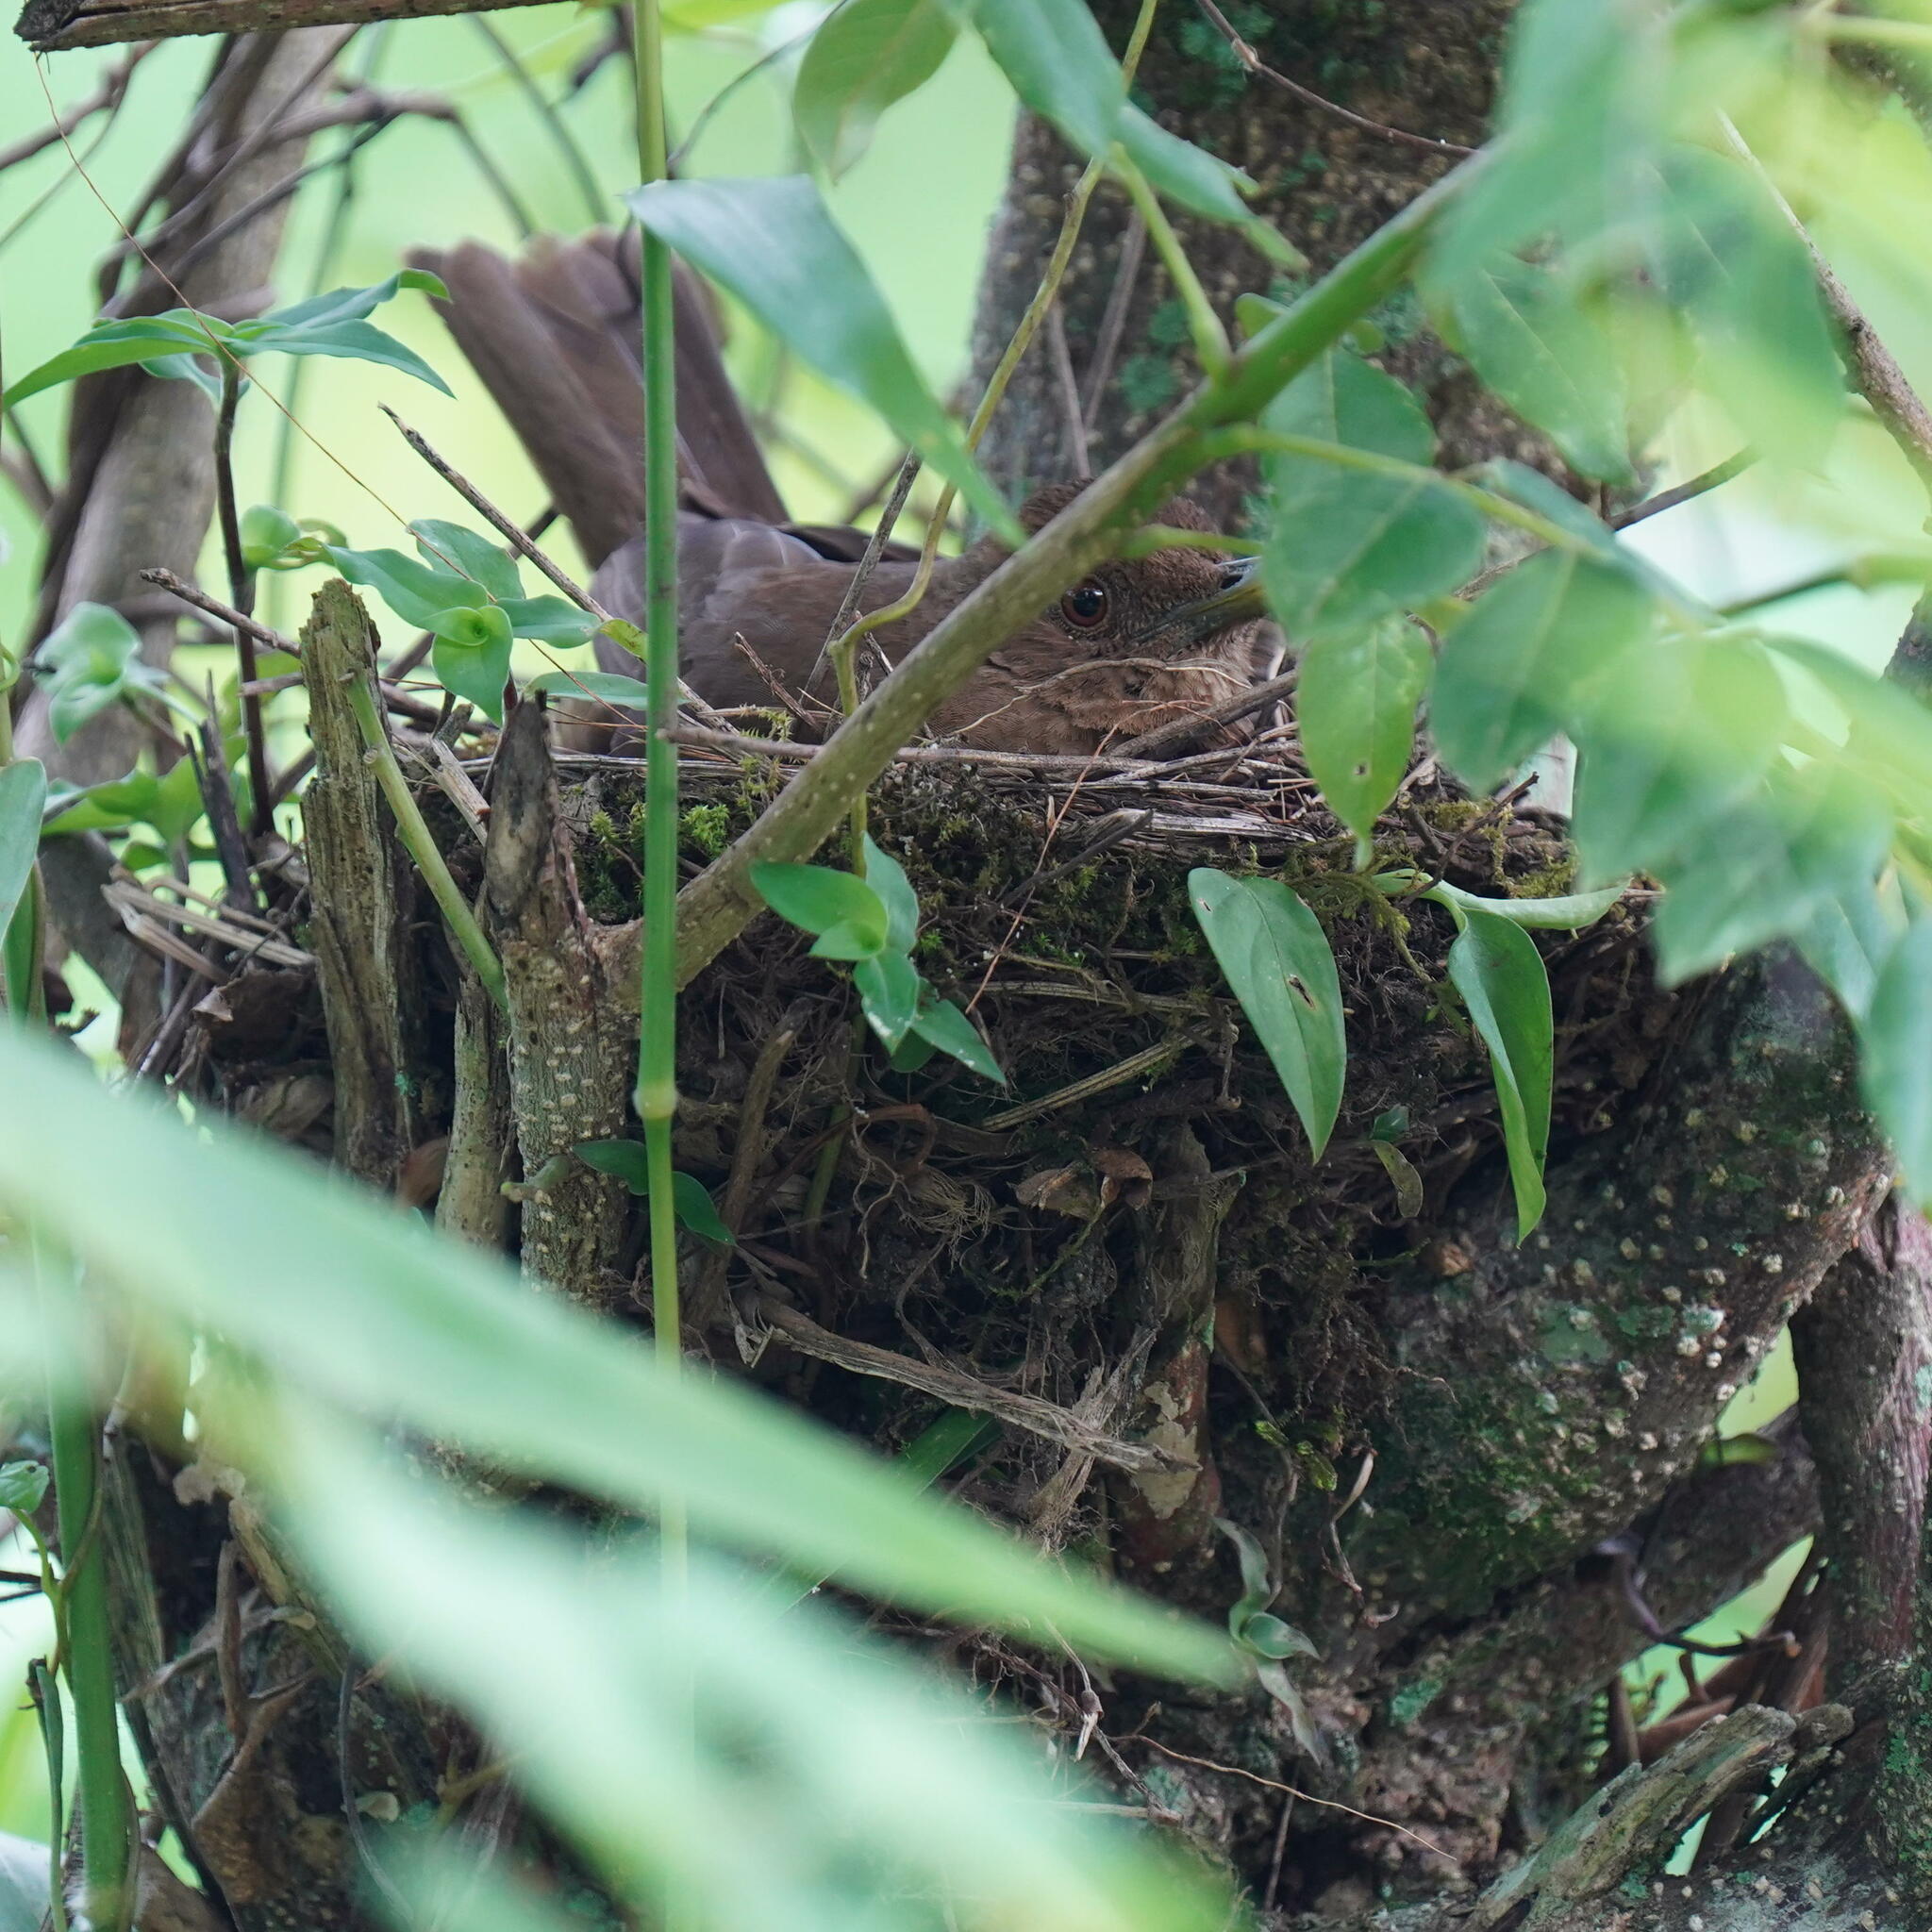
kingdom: Animalia
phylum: Chordata
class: Aves
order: Passeriformes
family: Turdidae
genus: Turdus
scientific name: Turdus grayi
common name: Clay-colored thrush
